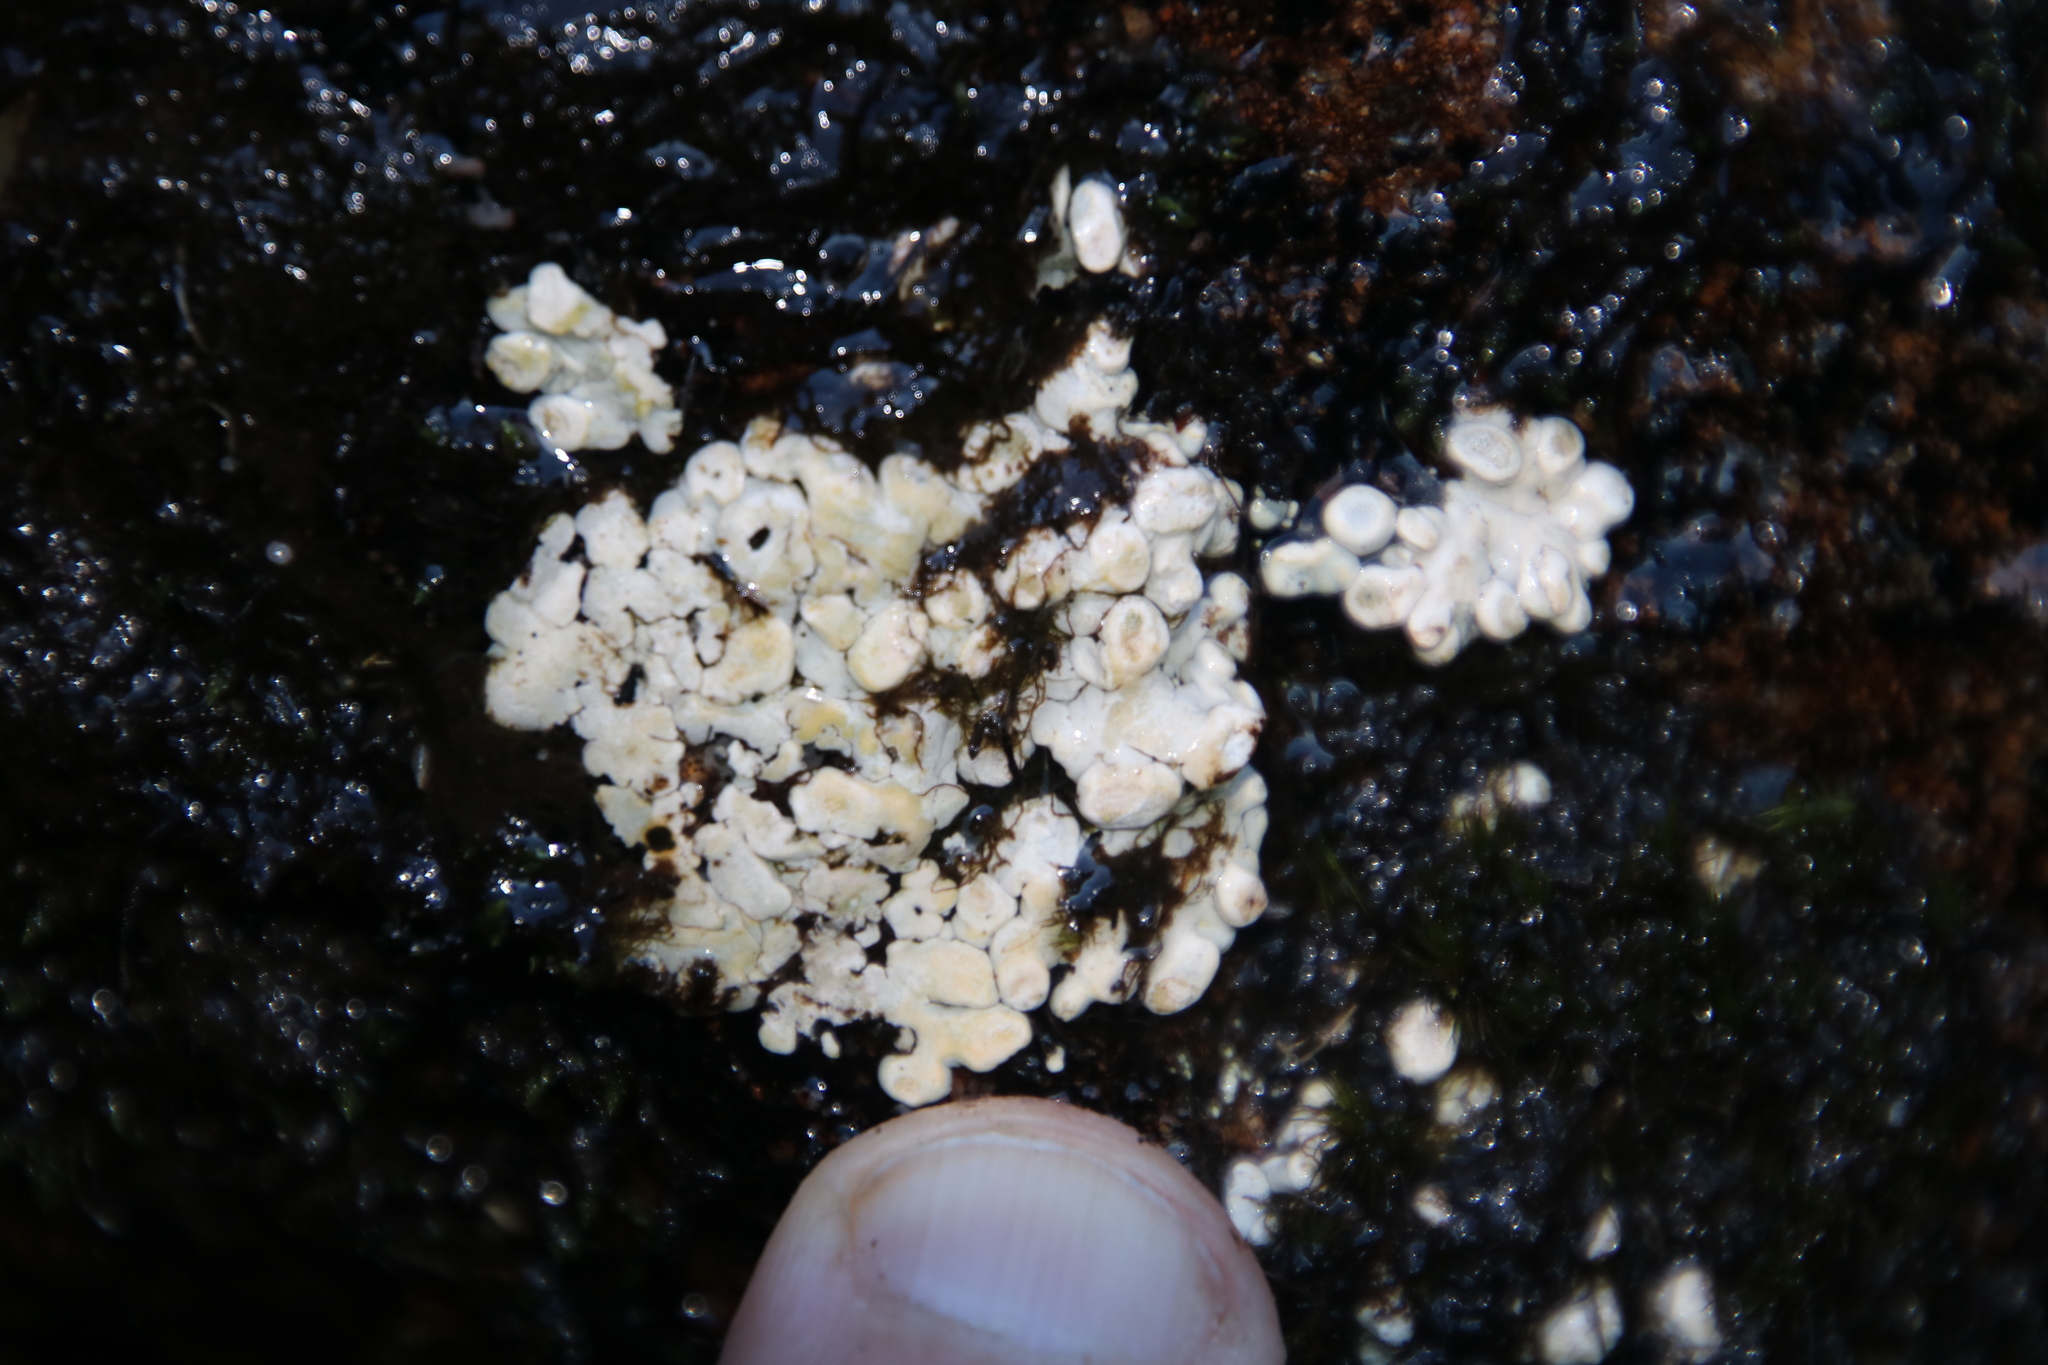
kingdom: Fungi
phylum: Ascomycota
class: Lecanoromycetes
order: Pertusariales
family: Icmadophilaceae
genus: Siphula
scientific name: Siphula verrucigera
